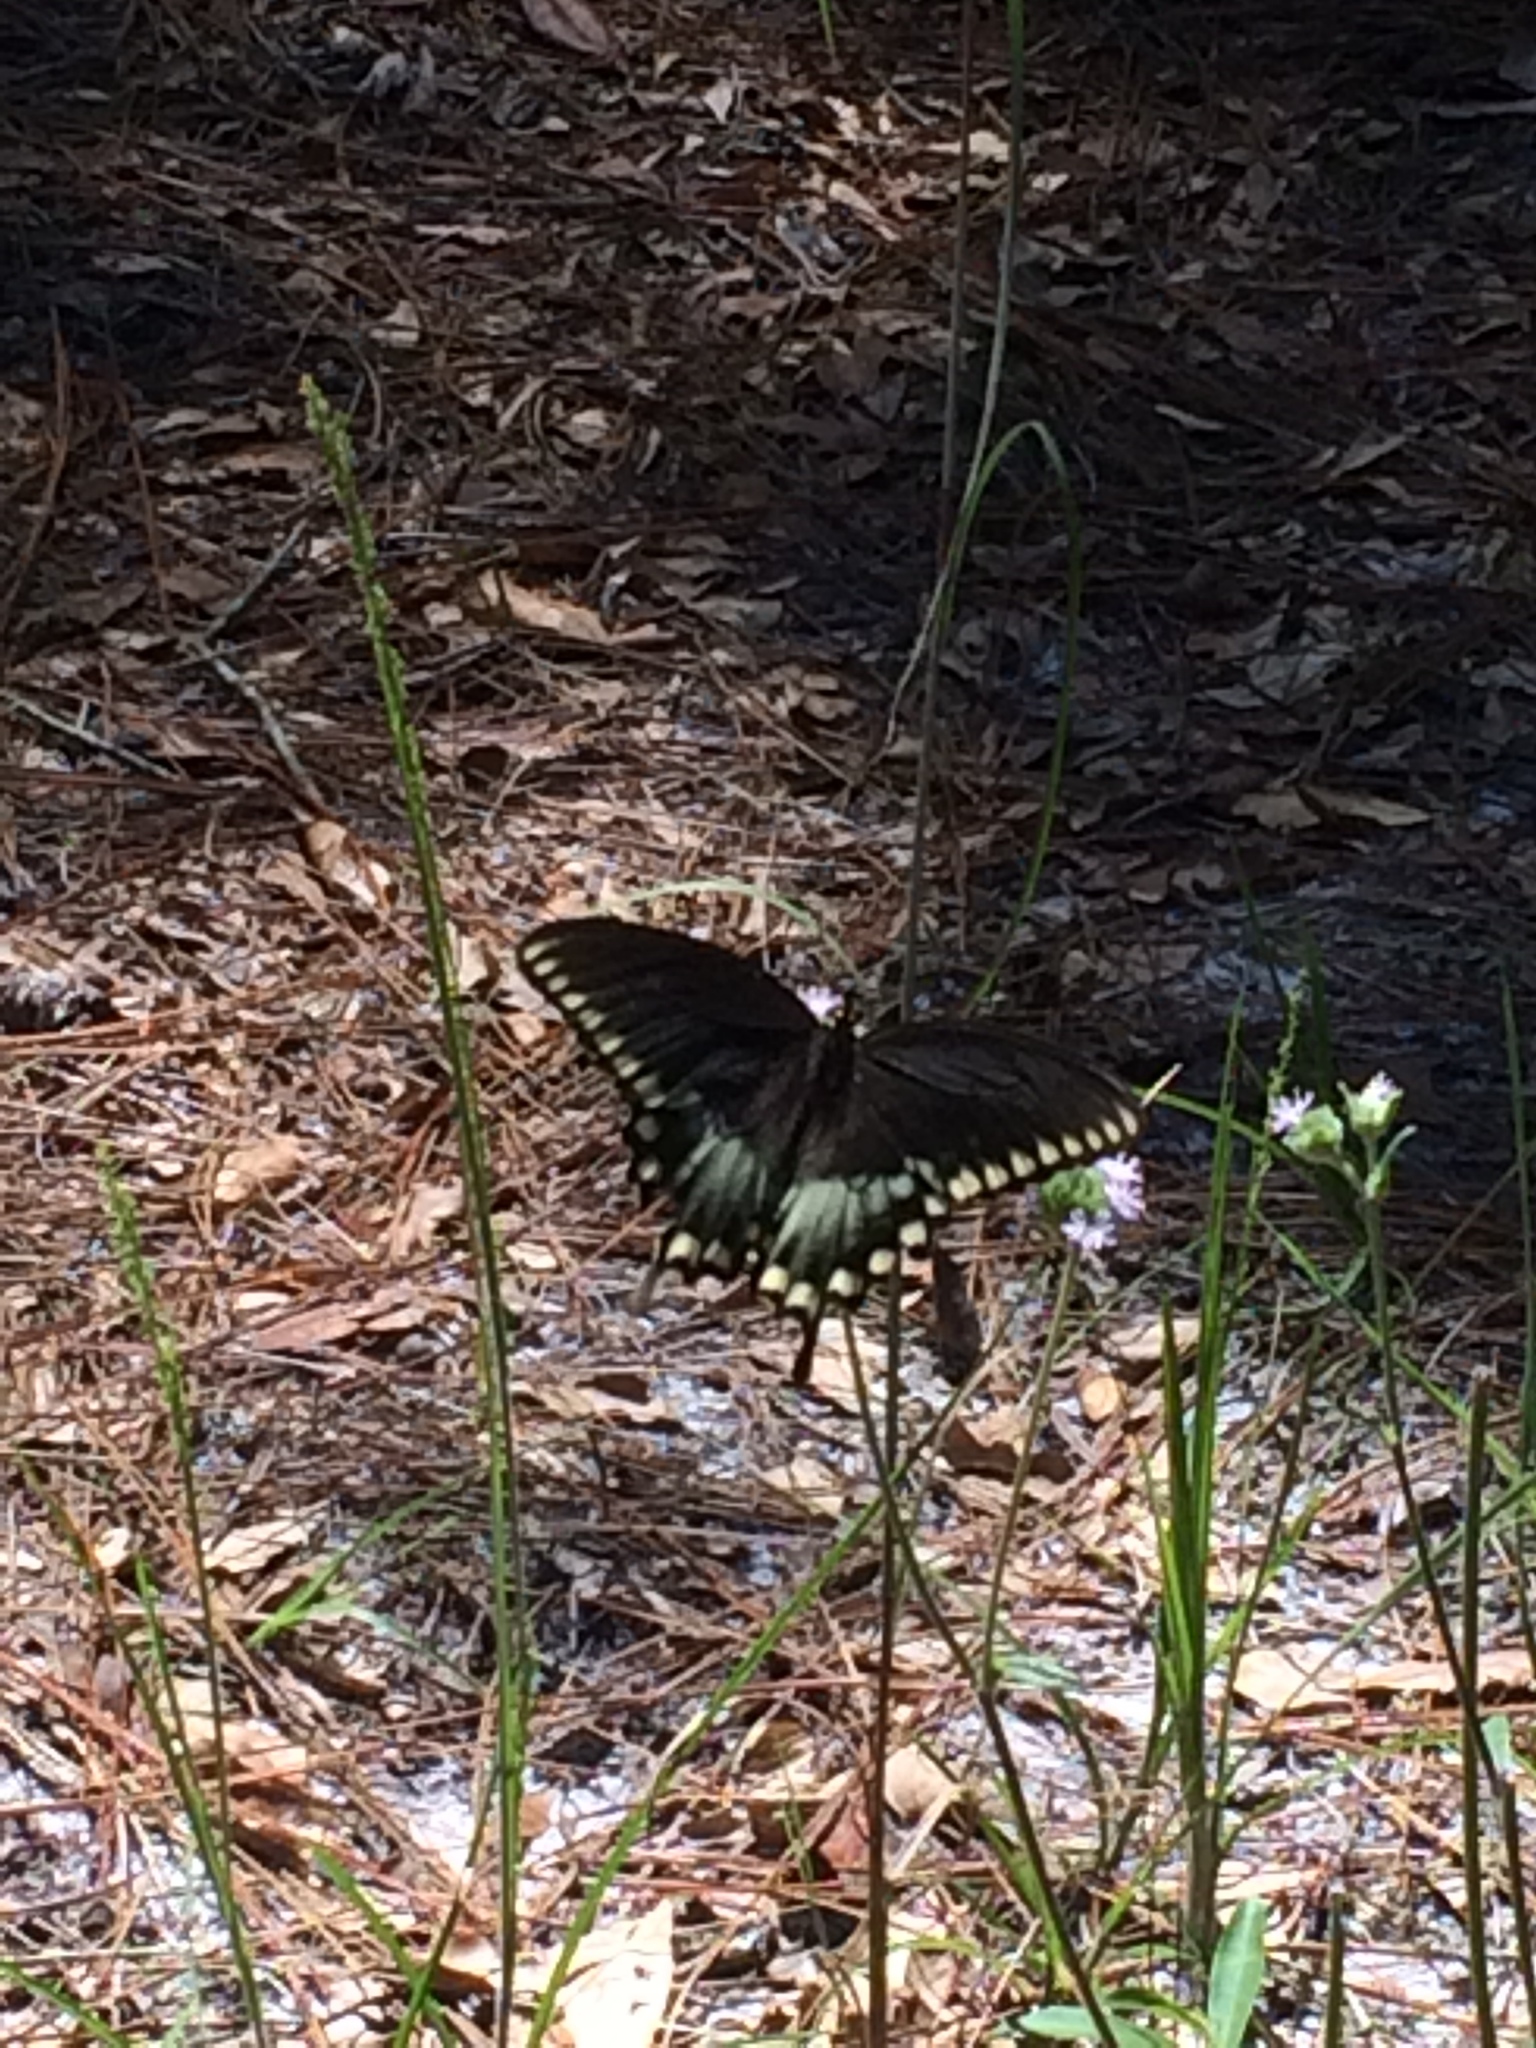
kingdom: Animalia
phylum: Arthropoda
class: Insecta
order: Lepidoptera
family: Papilionidae
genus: Papilio
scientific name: Papilio troilus
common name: Spicebush swallowtail
